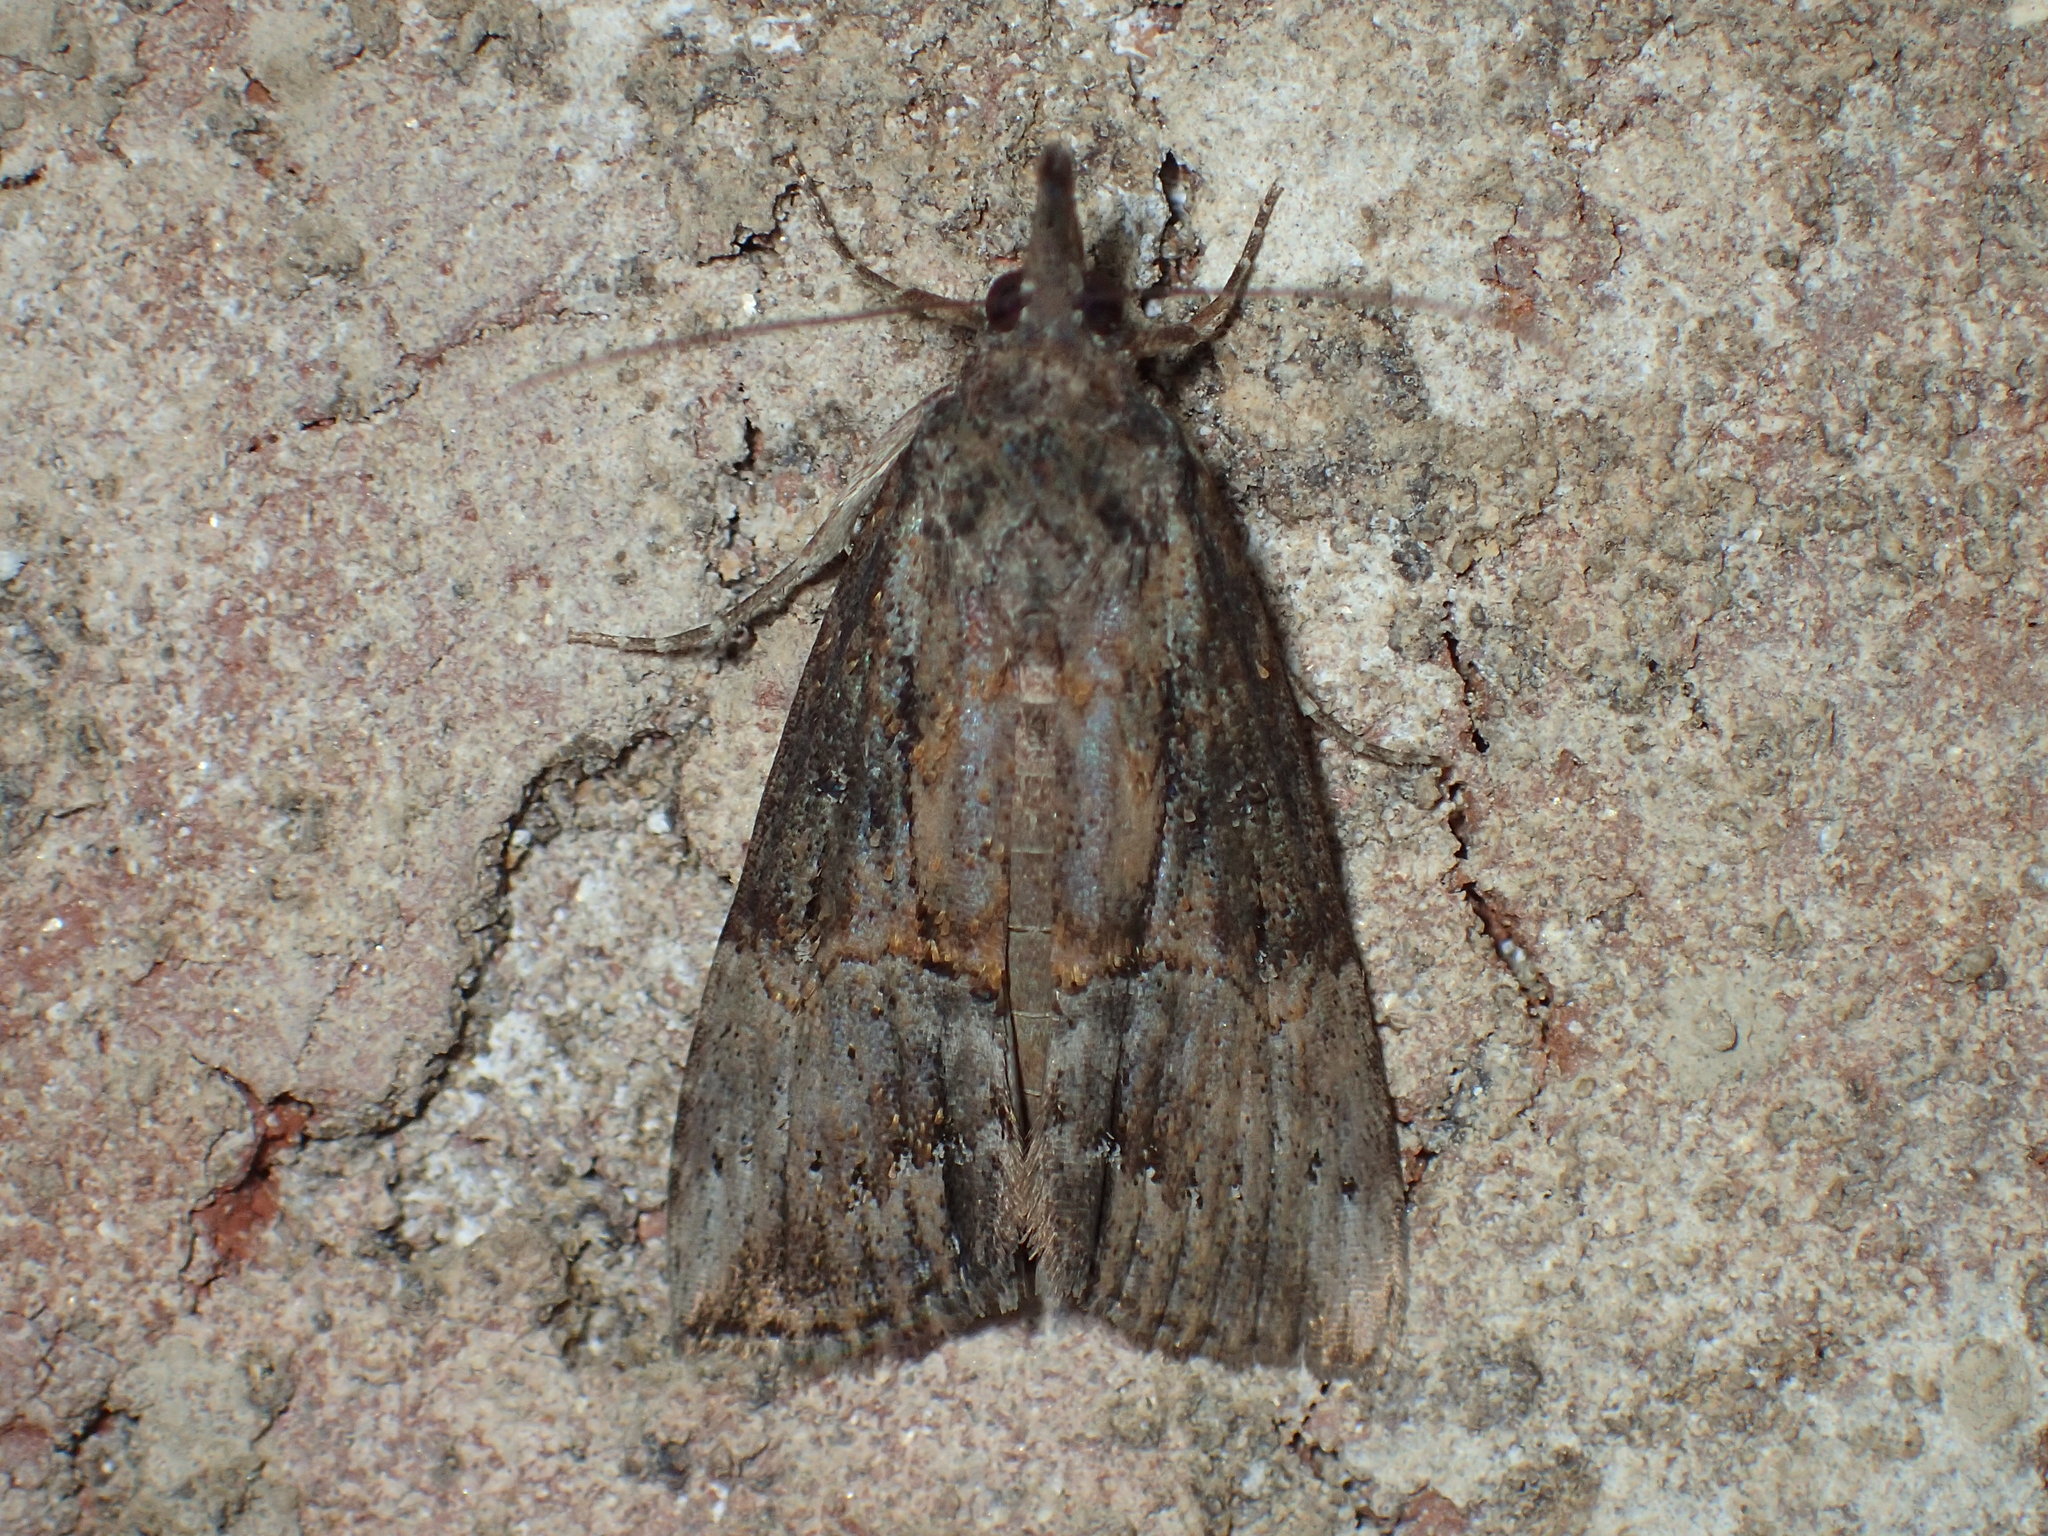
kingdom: Animalia
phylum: Arthropoda
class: Insecta
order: Lepidoptera
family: Erebidae
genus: Hypena
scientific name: Hypena scabra
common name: Green cloverworm
